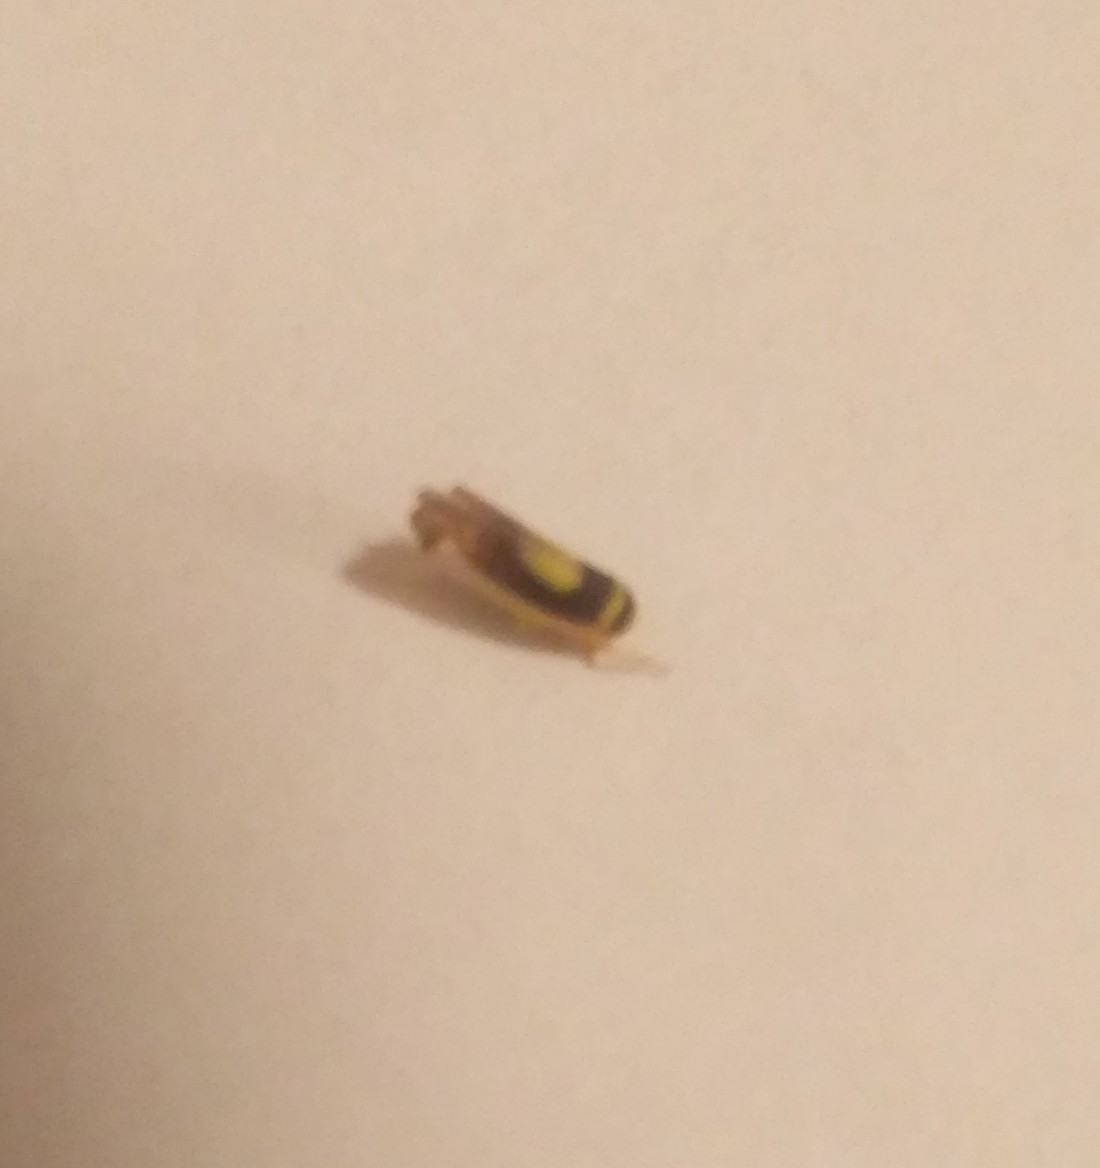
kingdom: Animalia
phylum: Arthropoda
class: Insecta
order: Hemiptera
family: Cicadellidae
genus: Colladonus
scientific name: Colladonus clitellarius
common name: The saddleback leafhopper
